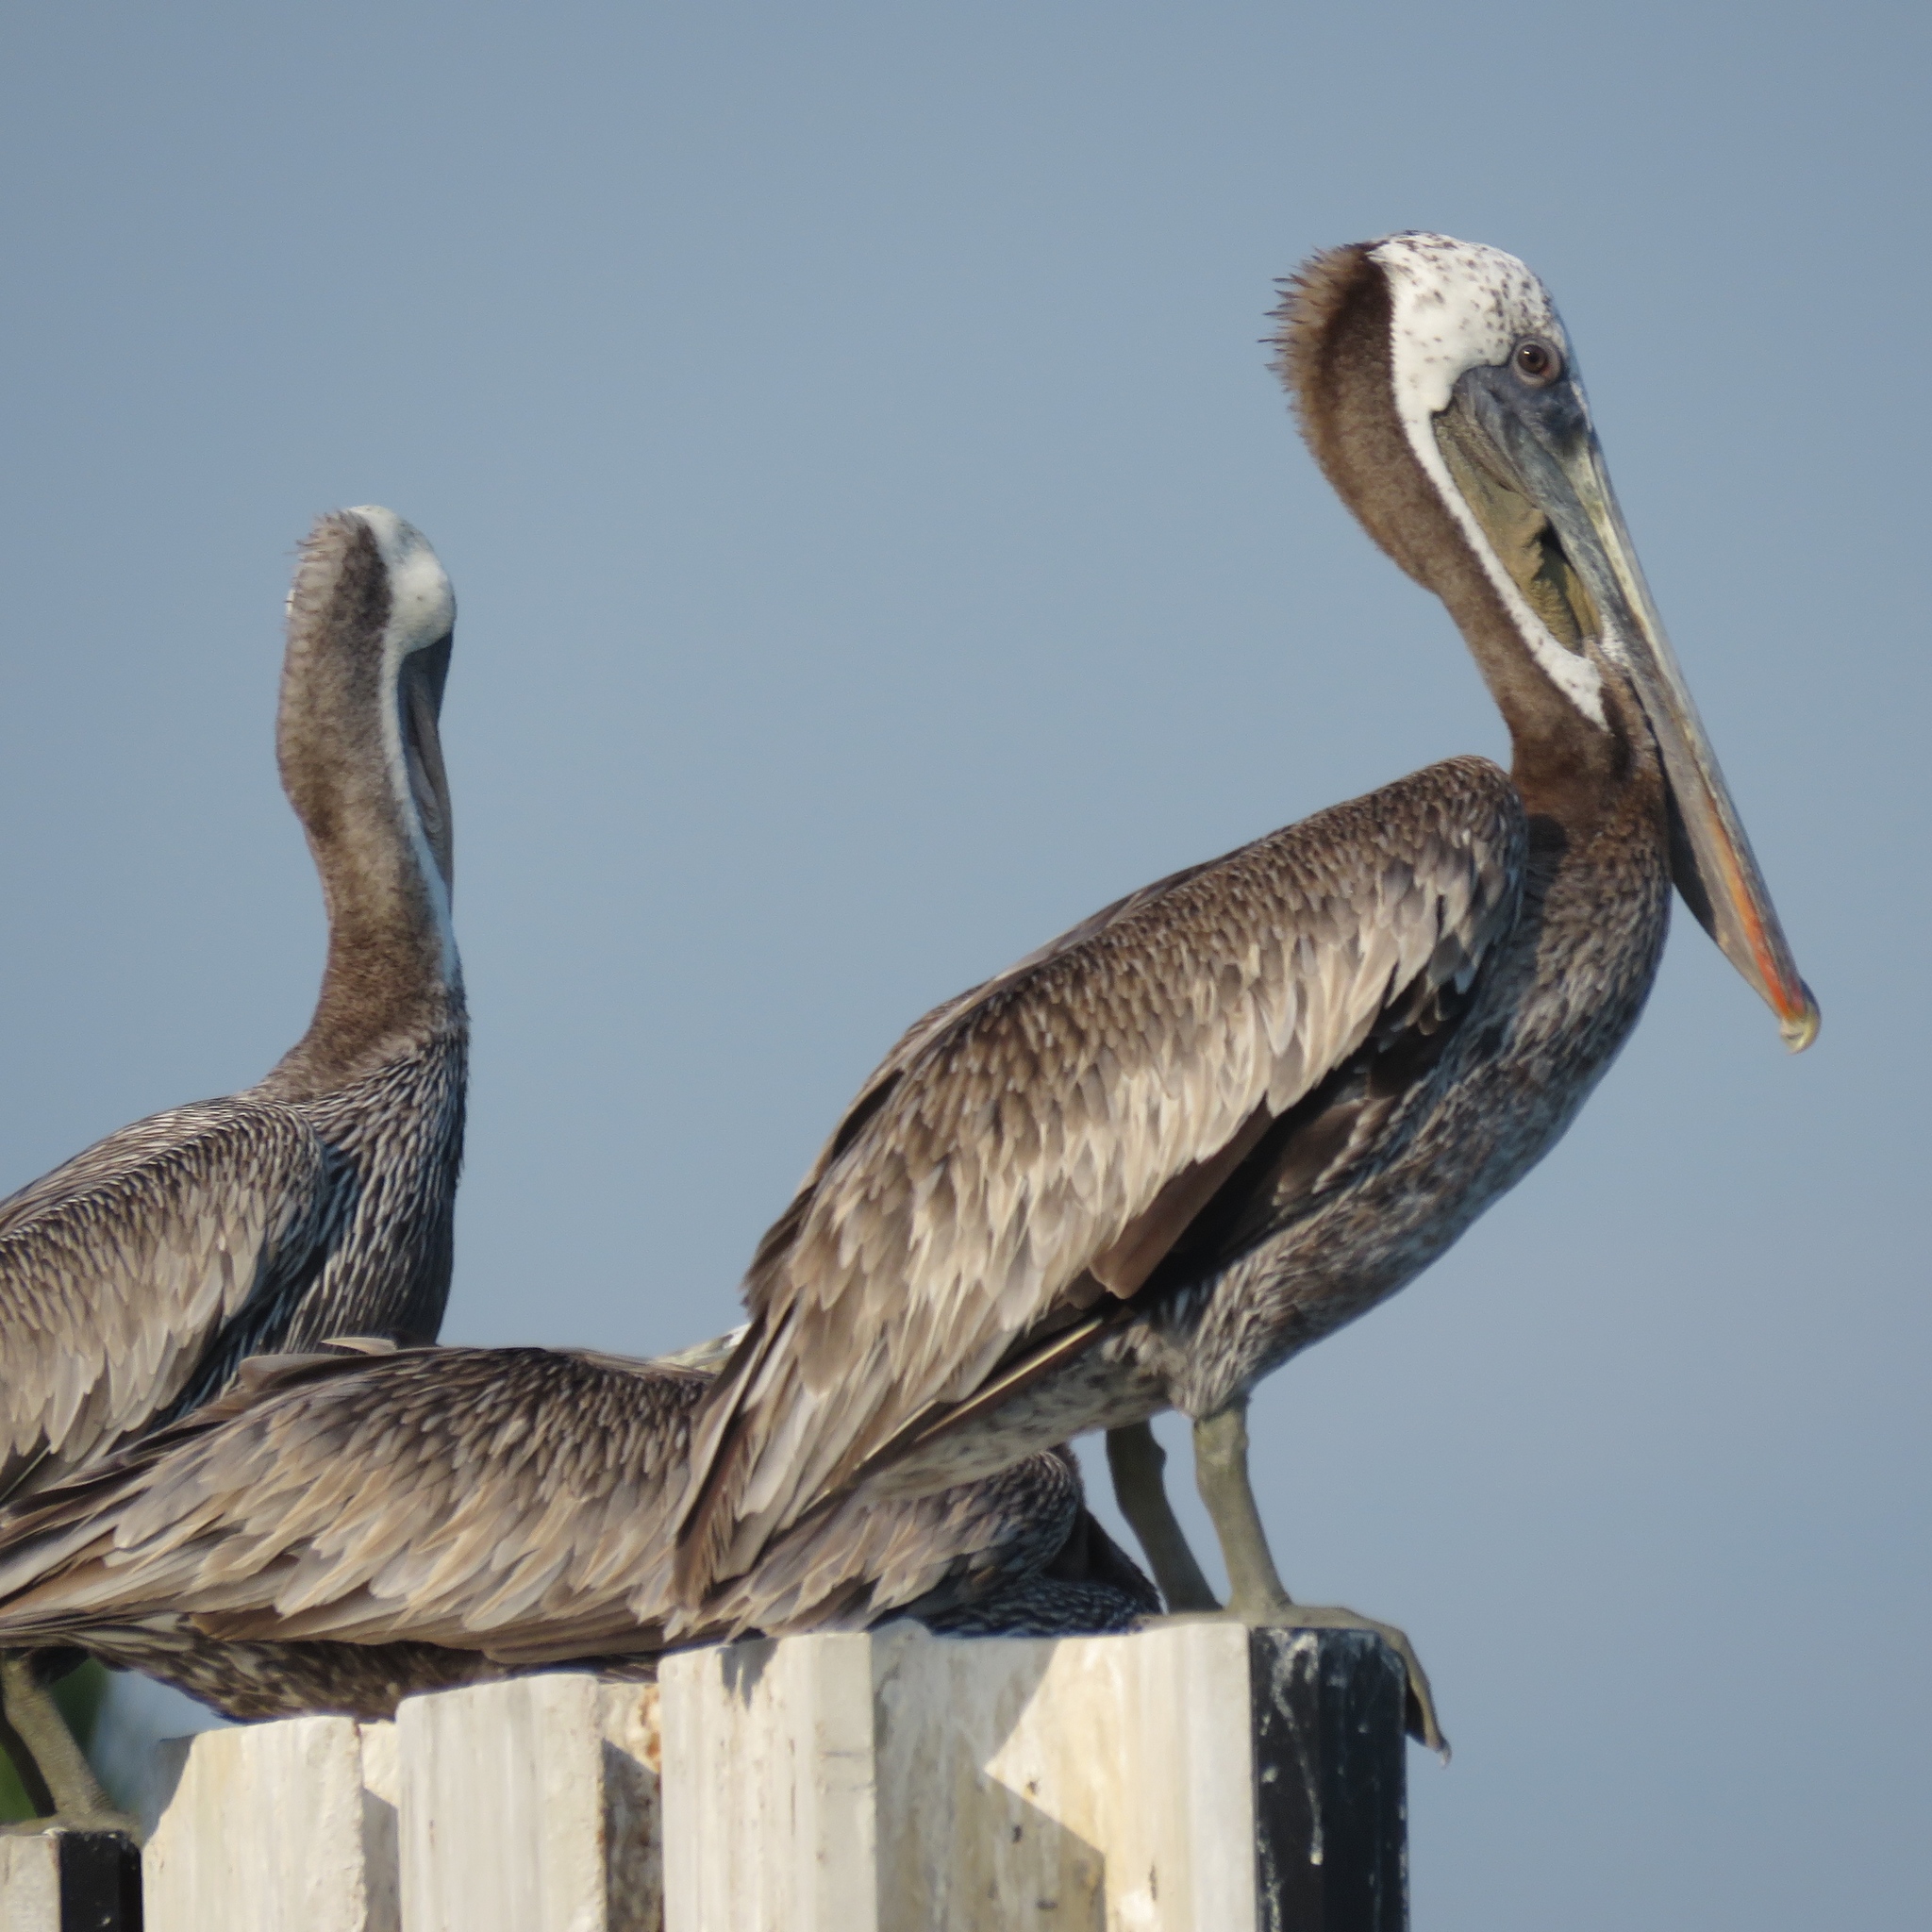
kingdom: Animalia
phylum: Chordata
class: Aves
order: Pelecaniformes
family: Pelecanidae
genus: Pelecanus
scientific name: Pelecanus occidentalis
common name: Brown pelican
